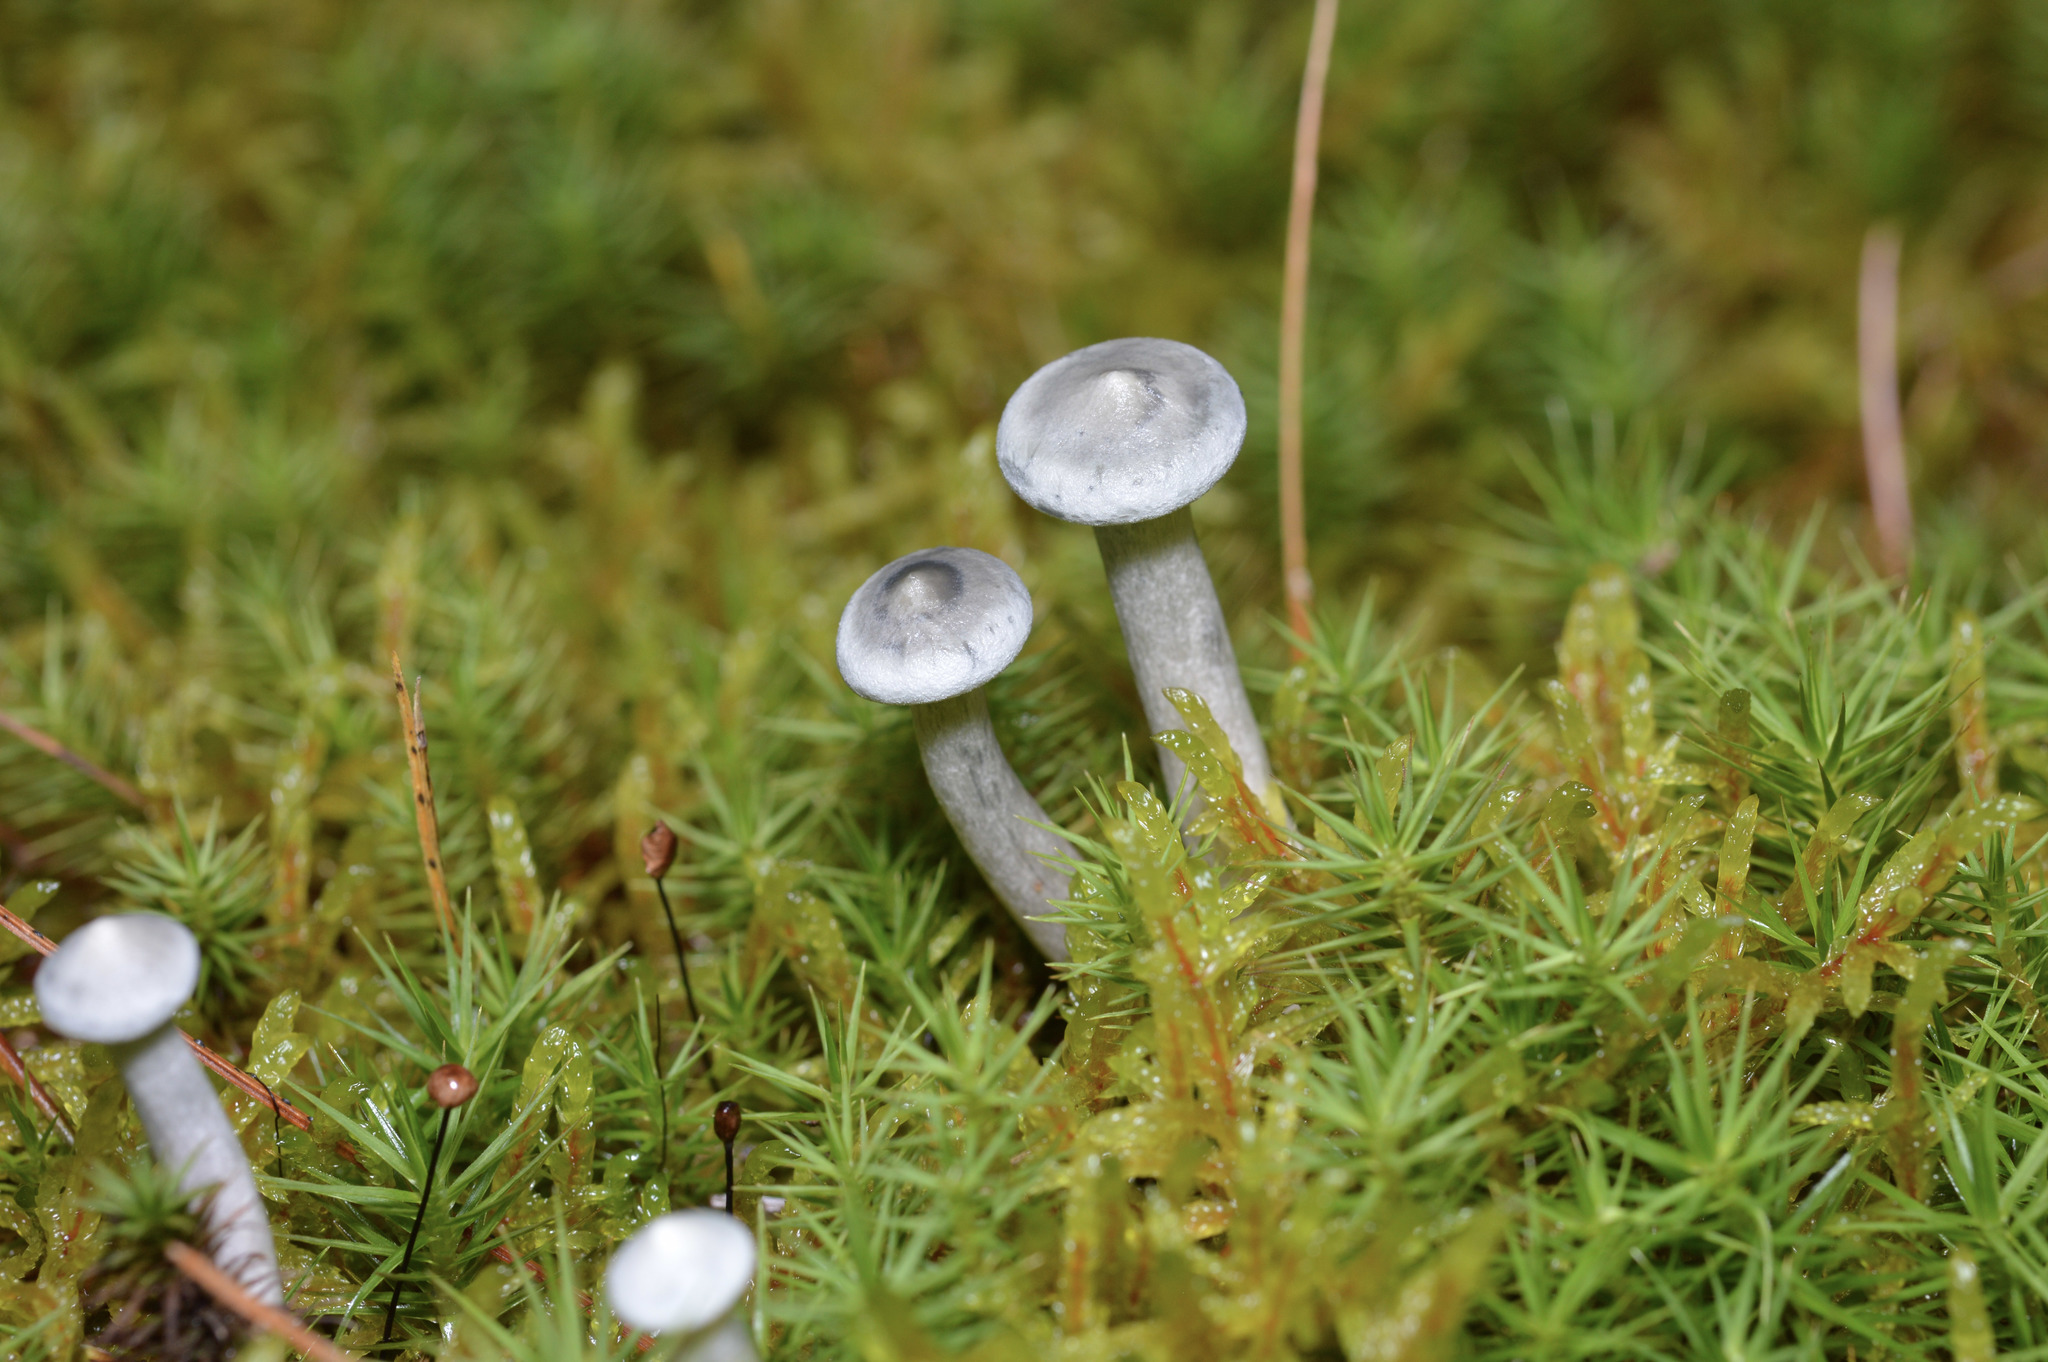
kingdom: Fungi
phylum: Basidiomycota
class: Agaricomycetes
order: Agaricales
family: Hygrophoraceae
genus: Cantharellula
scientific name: Cantharellula umbonata
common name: The humpback
